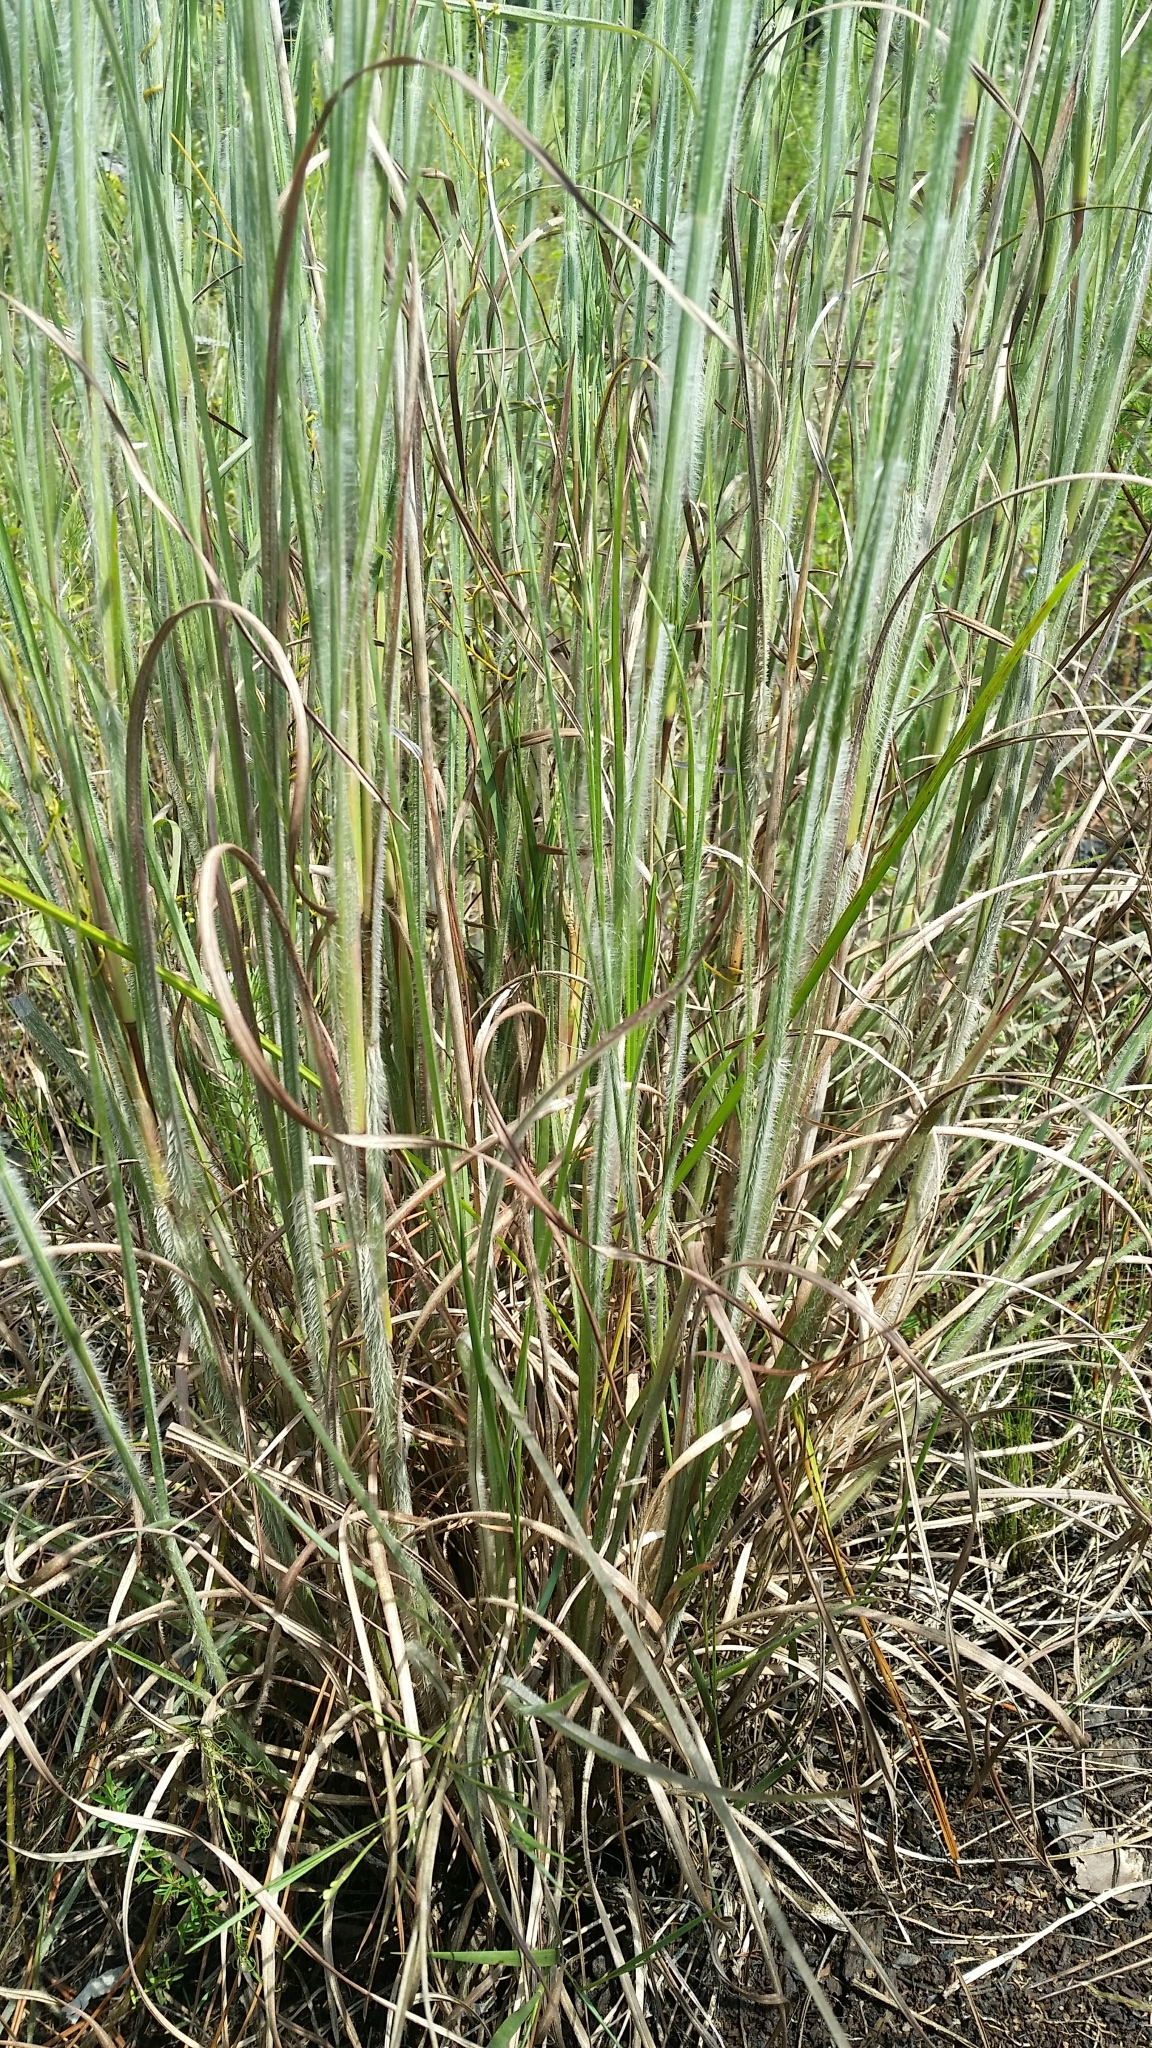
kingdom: Plantae
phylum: Tracheophyta
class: Liliopsida
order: Poales
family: Poaceae
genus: Andropogon
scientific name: Andropogon hirsutior
